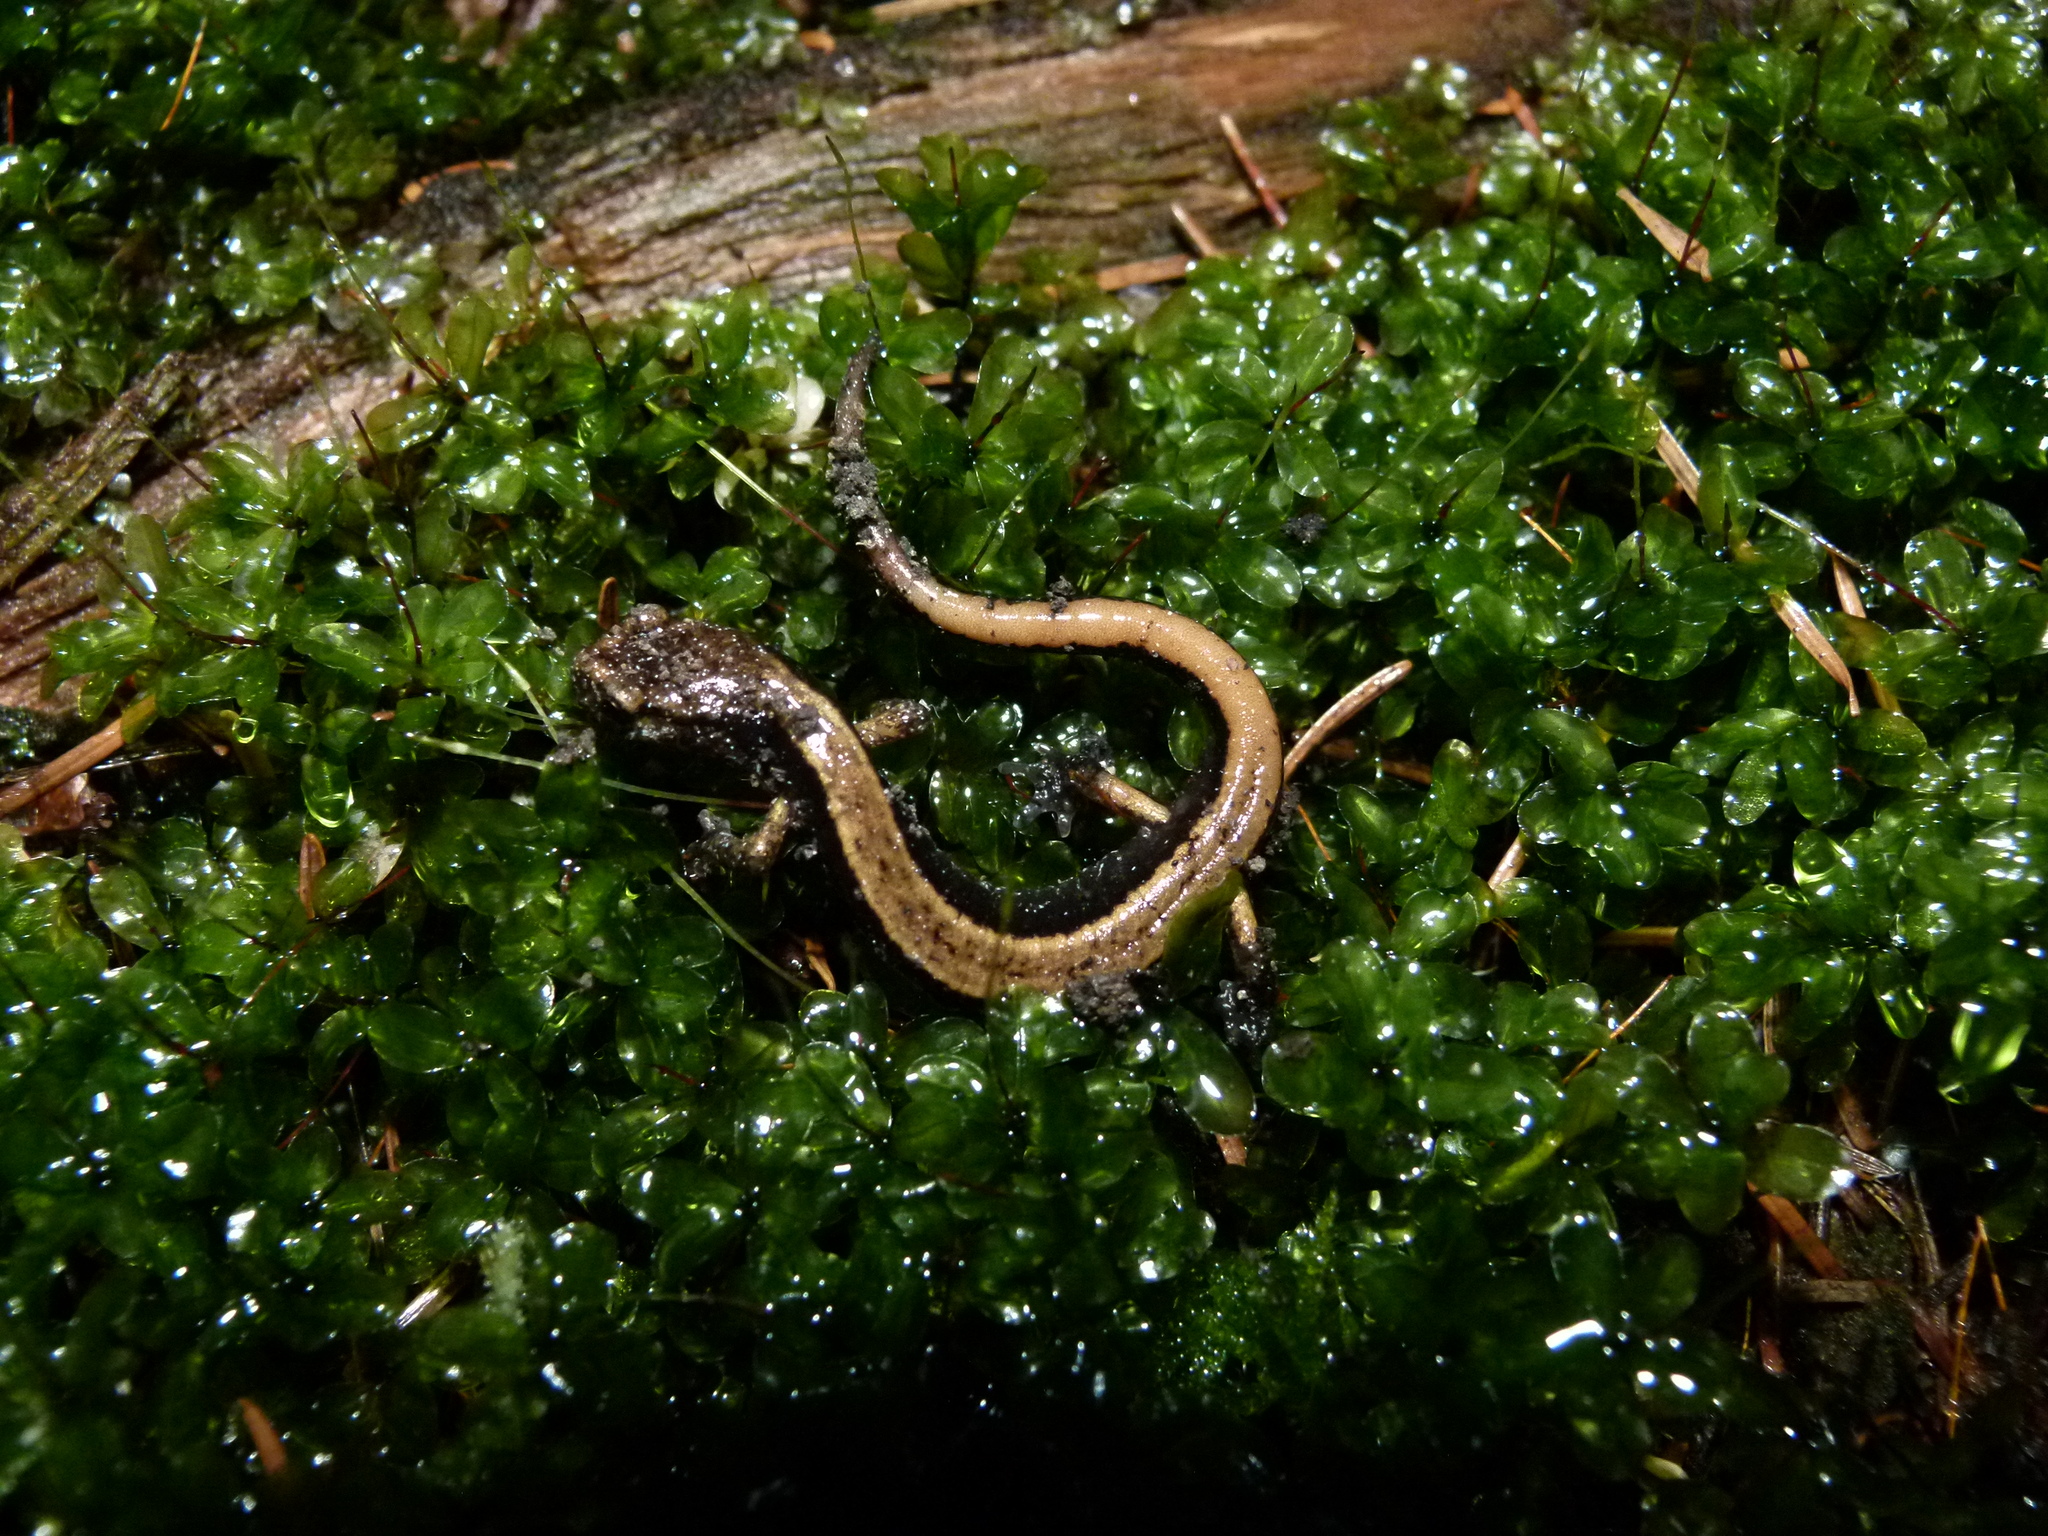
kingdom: Animalia
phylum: Chordata
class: Amphibia
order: Caudata
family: Plethodontidae
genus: Plethodon
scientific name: Plethodon vehiculum
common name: Western red-backed salamander
